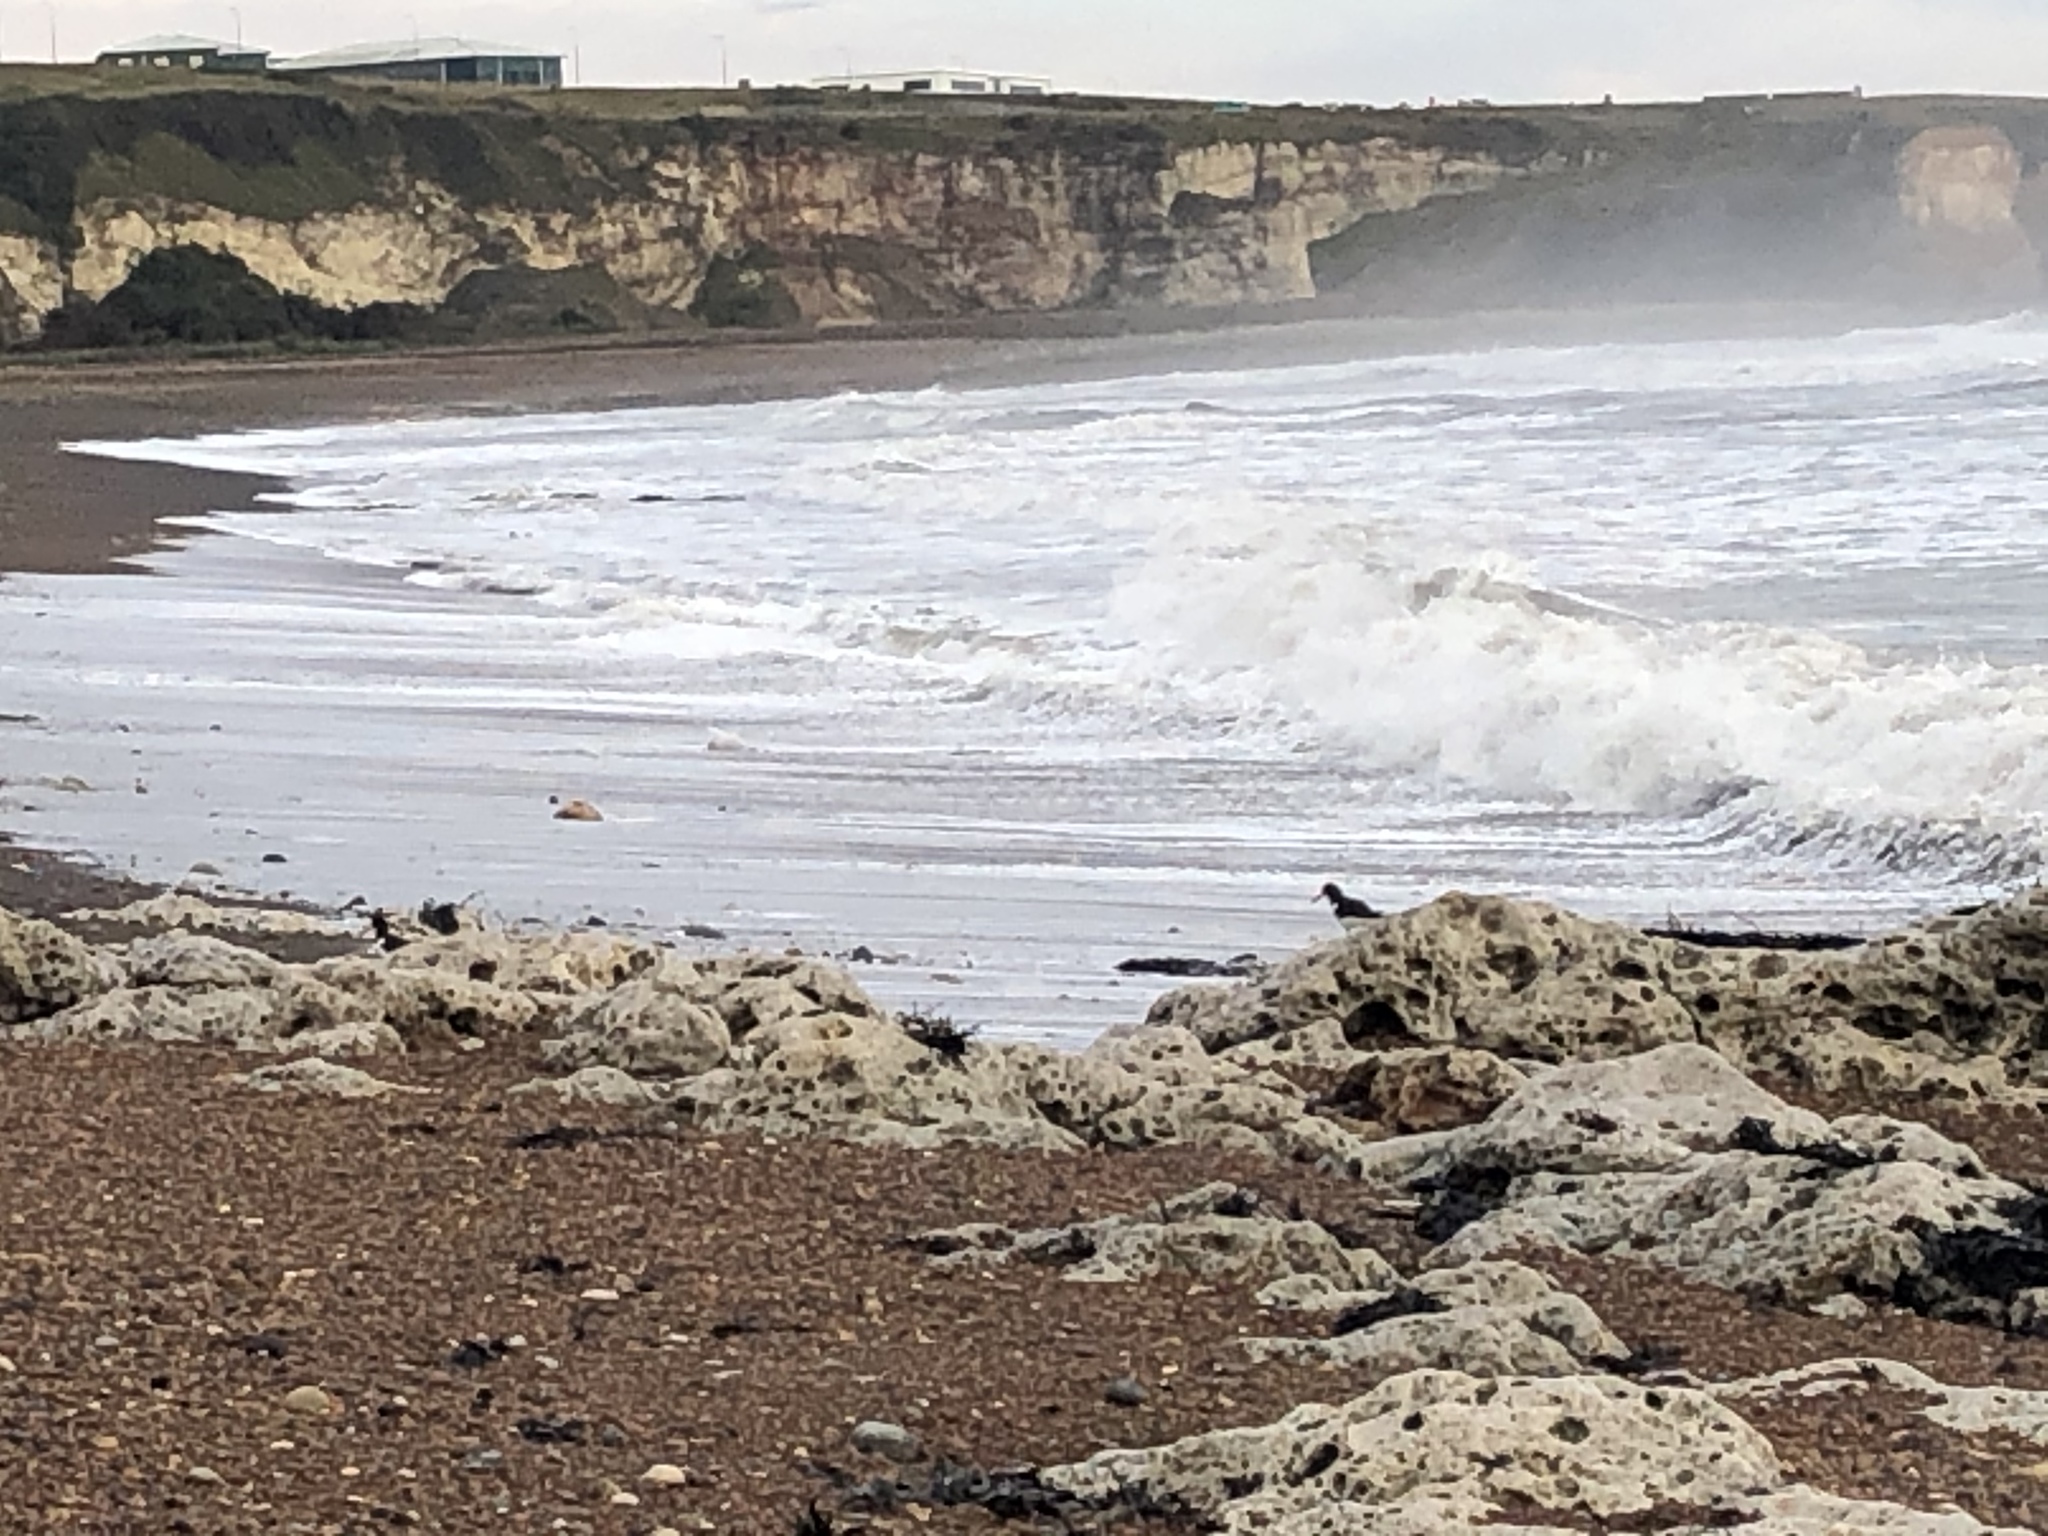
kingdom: Animalia
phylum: Chordata
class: Aves
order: Charadriiformes
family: Haematopodidae
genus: Haematopus
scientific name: Haematopus ostralegus
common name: Eurasian oystercatcher
